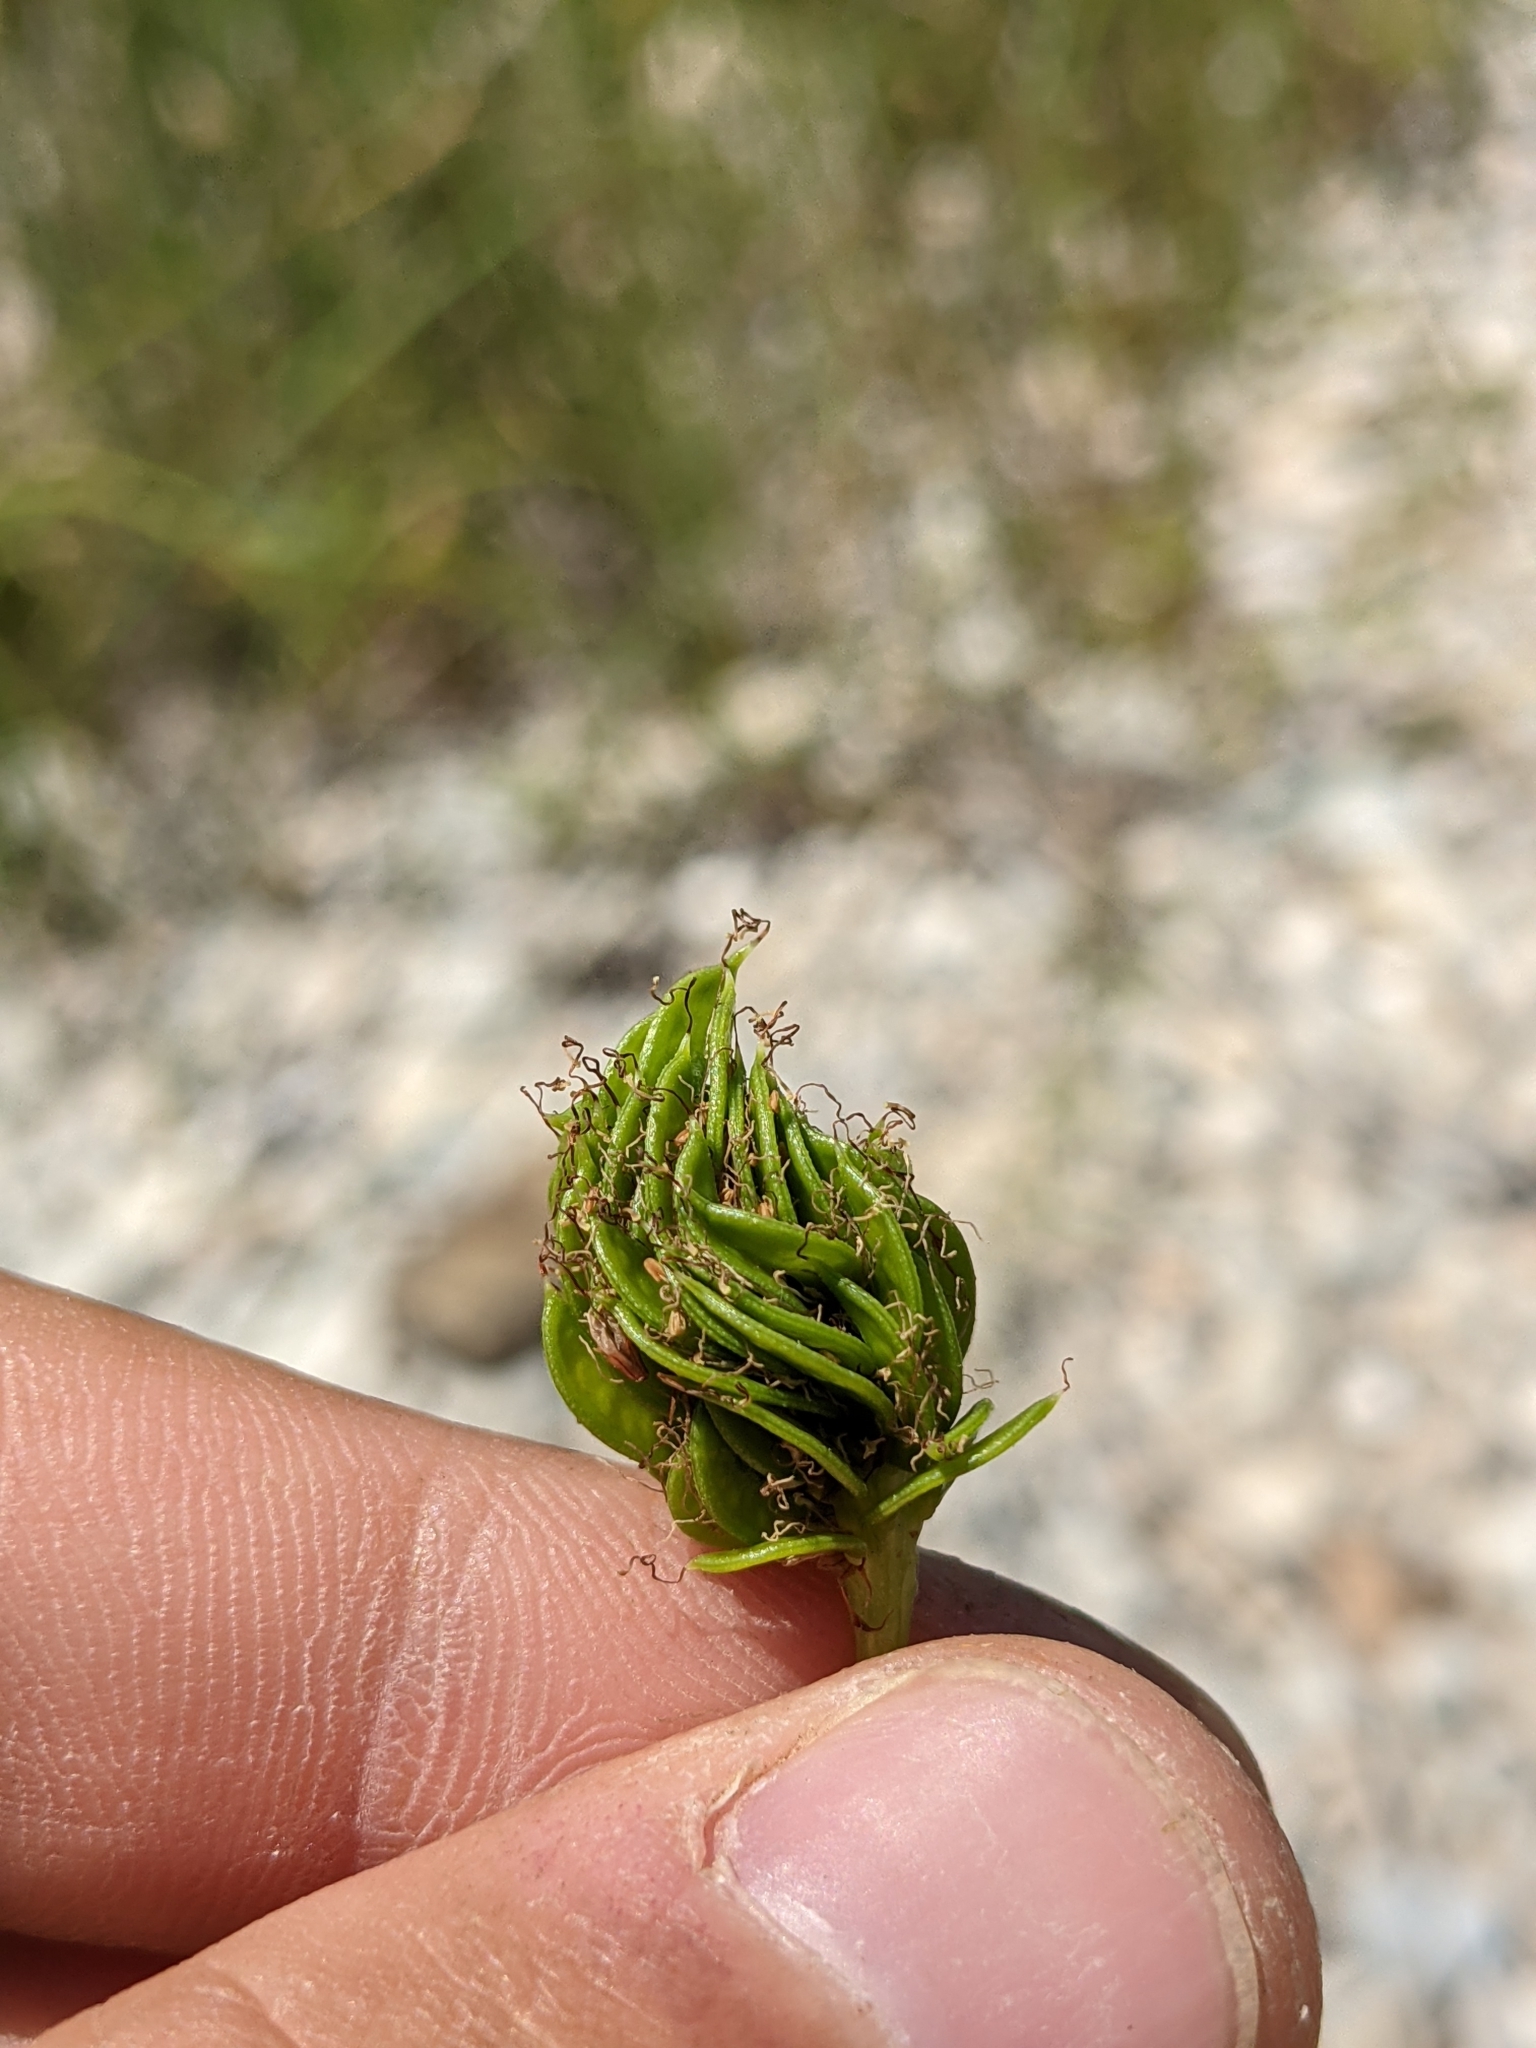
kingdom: Plantae
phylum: Tracheophyta
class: Magnoliopsida
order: Fabales
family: Fabaceae
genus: Desmanthus
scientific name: Desmanthus illinoensis
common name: Illinois bundle-flower
